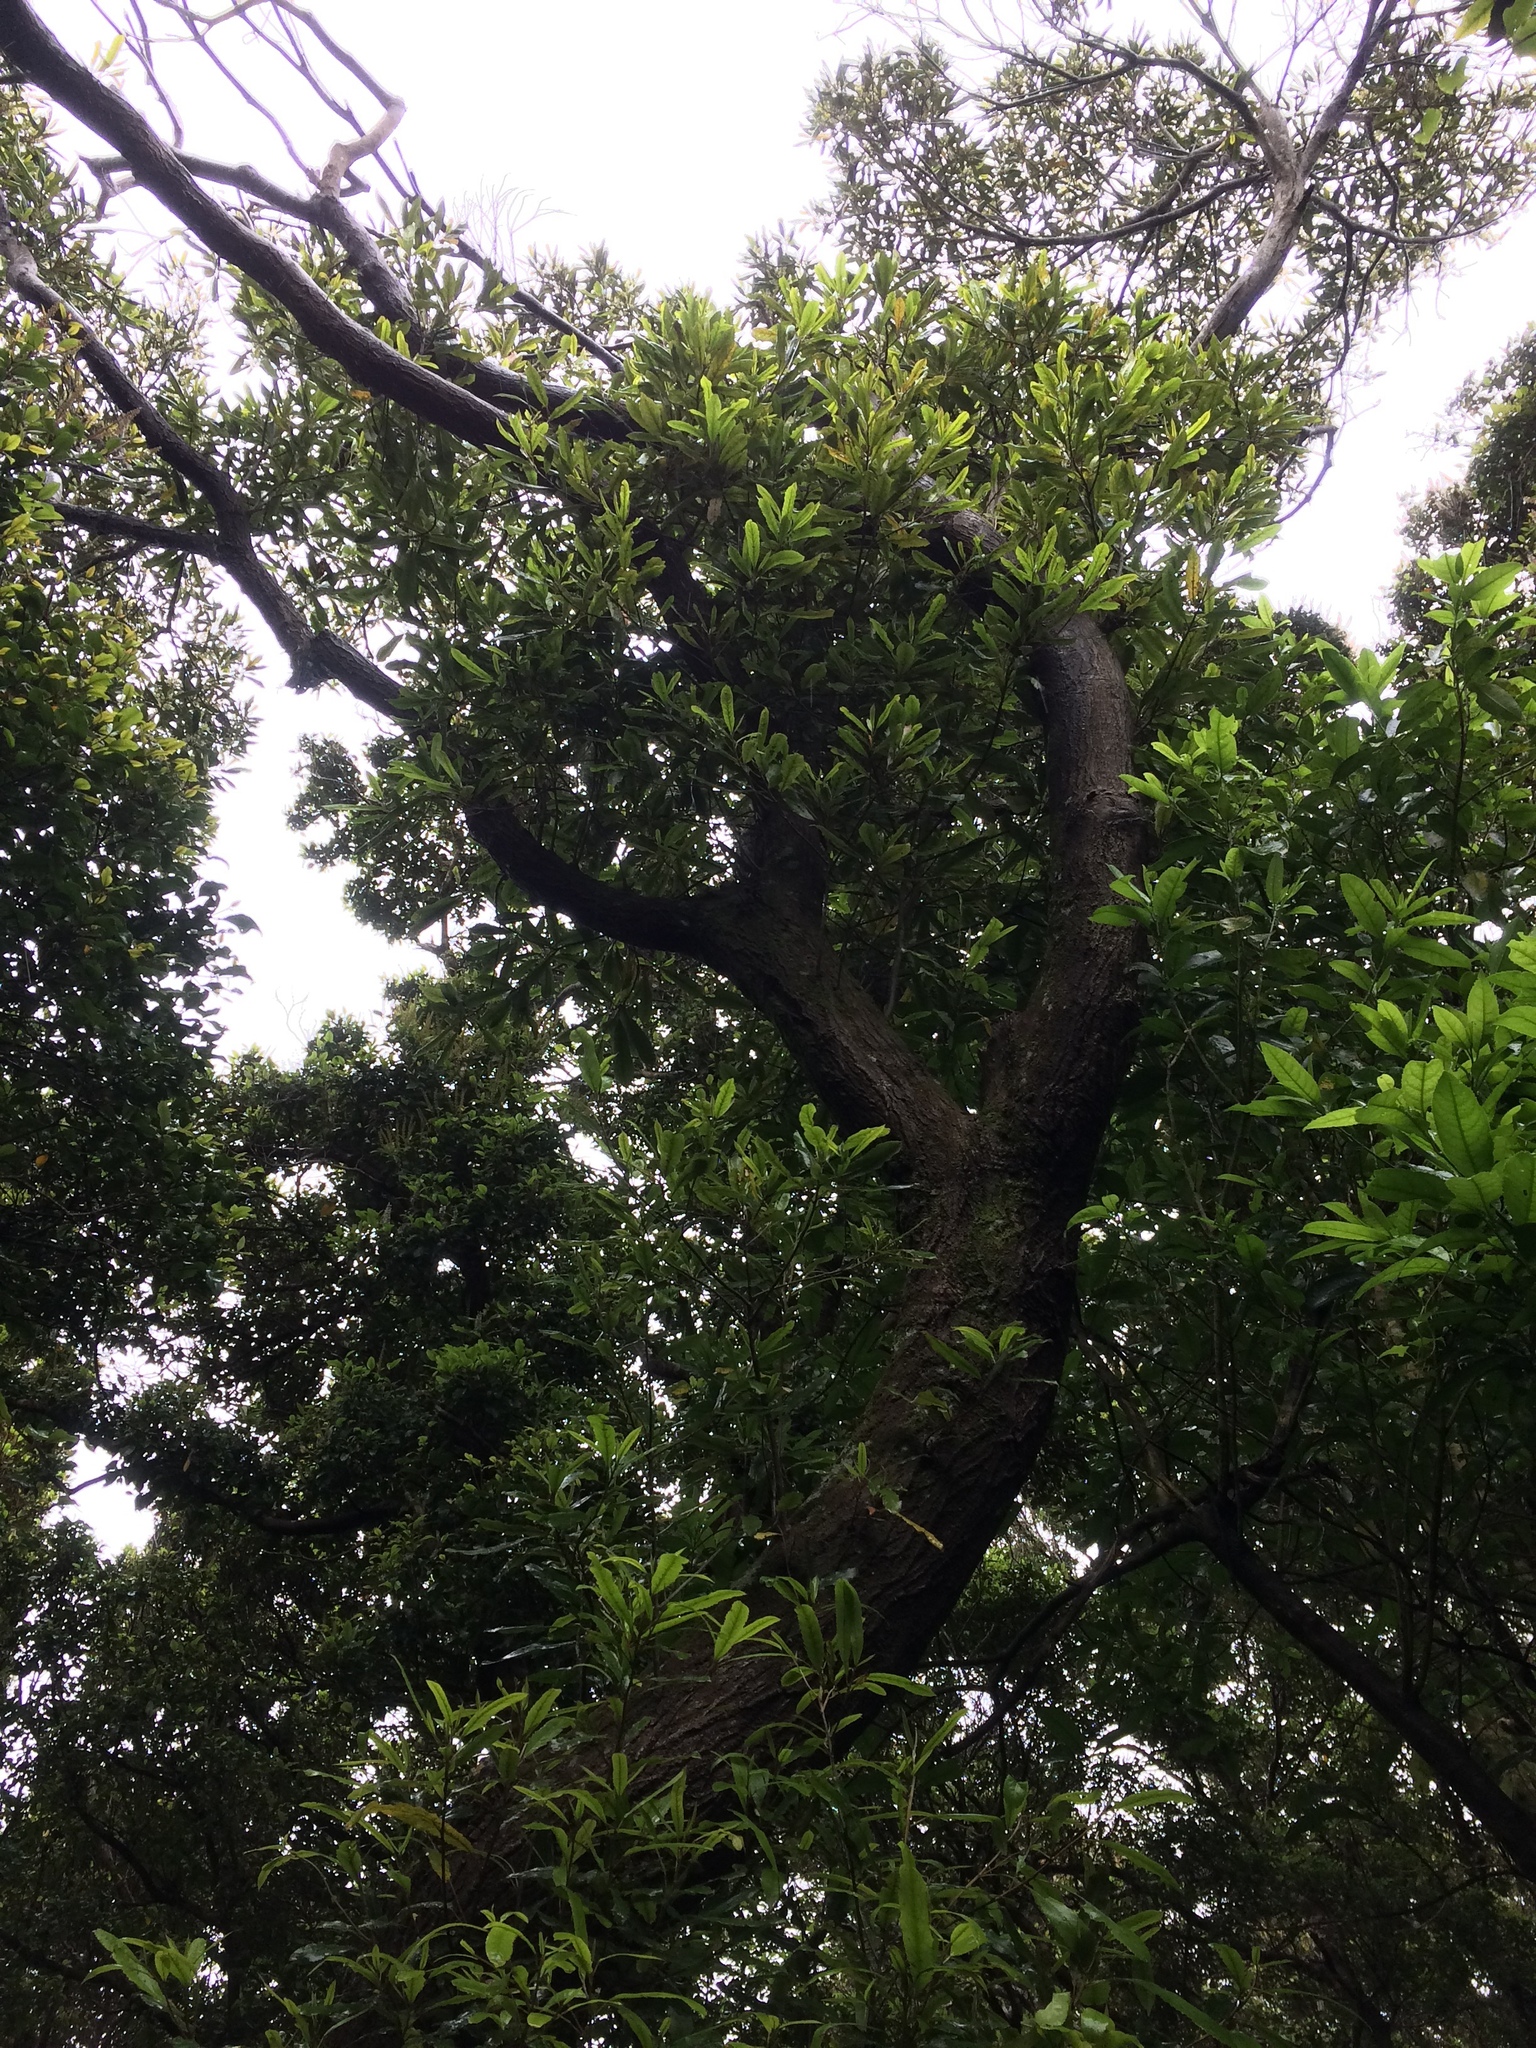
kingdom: Plantae
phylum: Tracheophyta
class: Magnoliopsida
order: Oxalidales
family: Elaeocarpaceae
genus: Elaeocarpus
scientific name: Elaeocarpus dentatus
